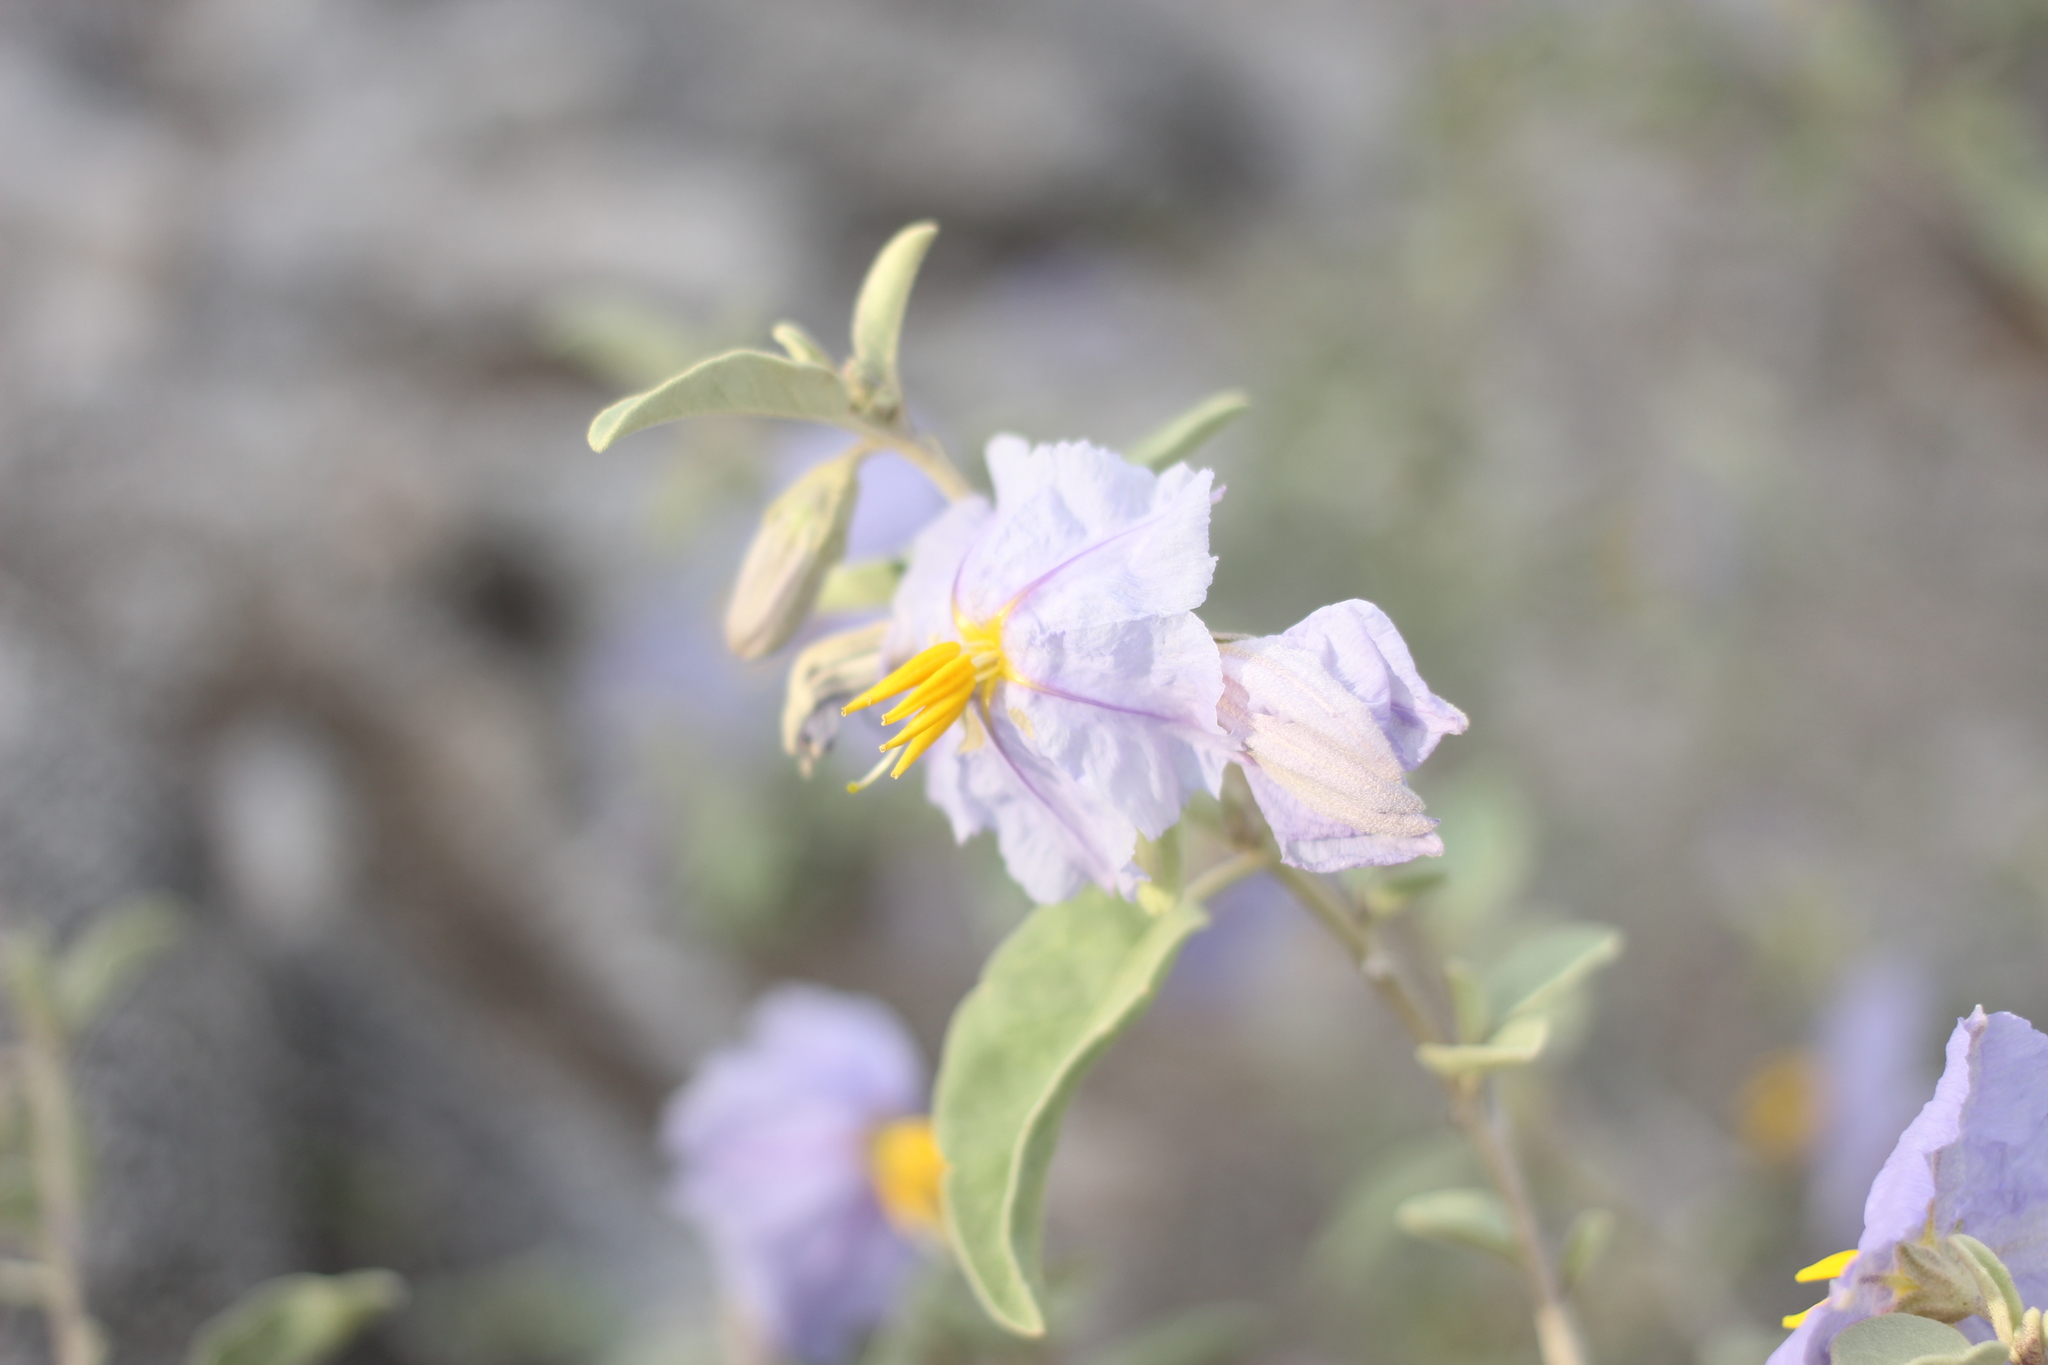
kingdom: Plantae
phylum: Tracheophyta
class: Magnoliopsida
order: Solanales
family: Solanaceae
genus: Solanum
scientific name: Solanum elaeagnifolium
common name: Silverleaf nightshade
